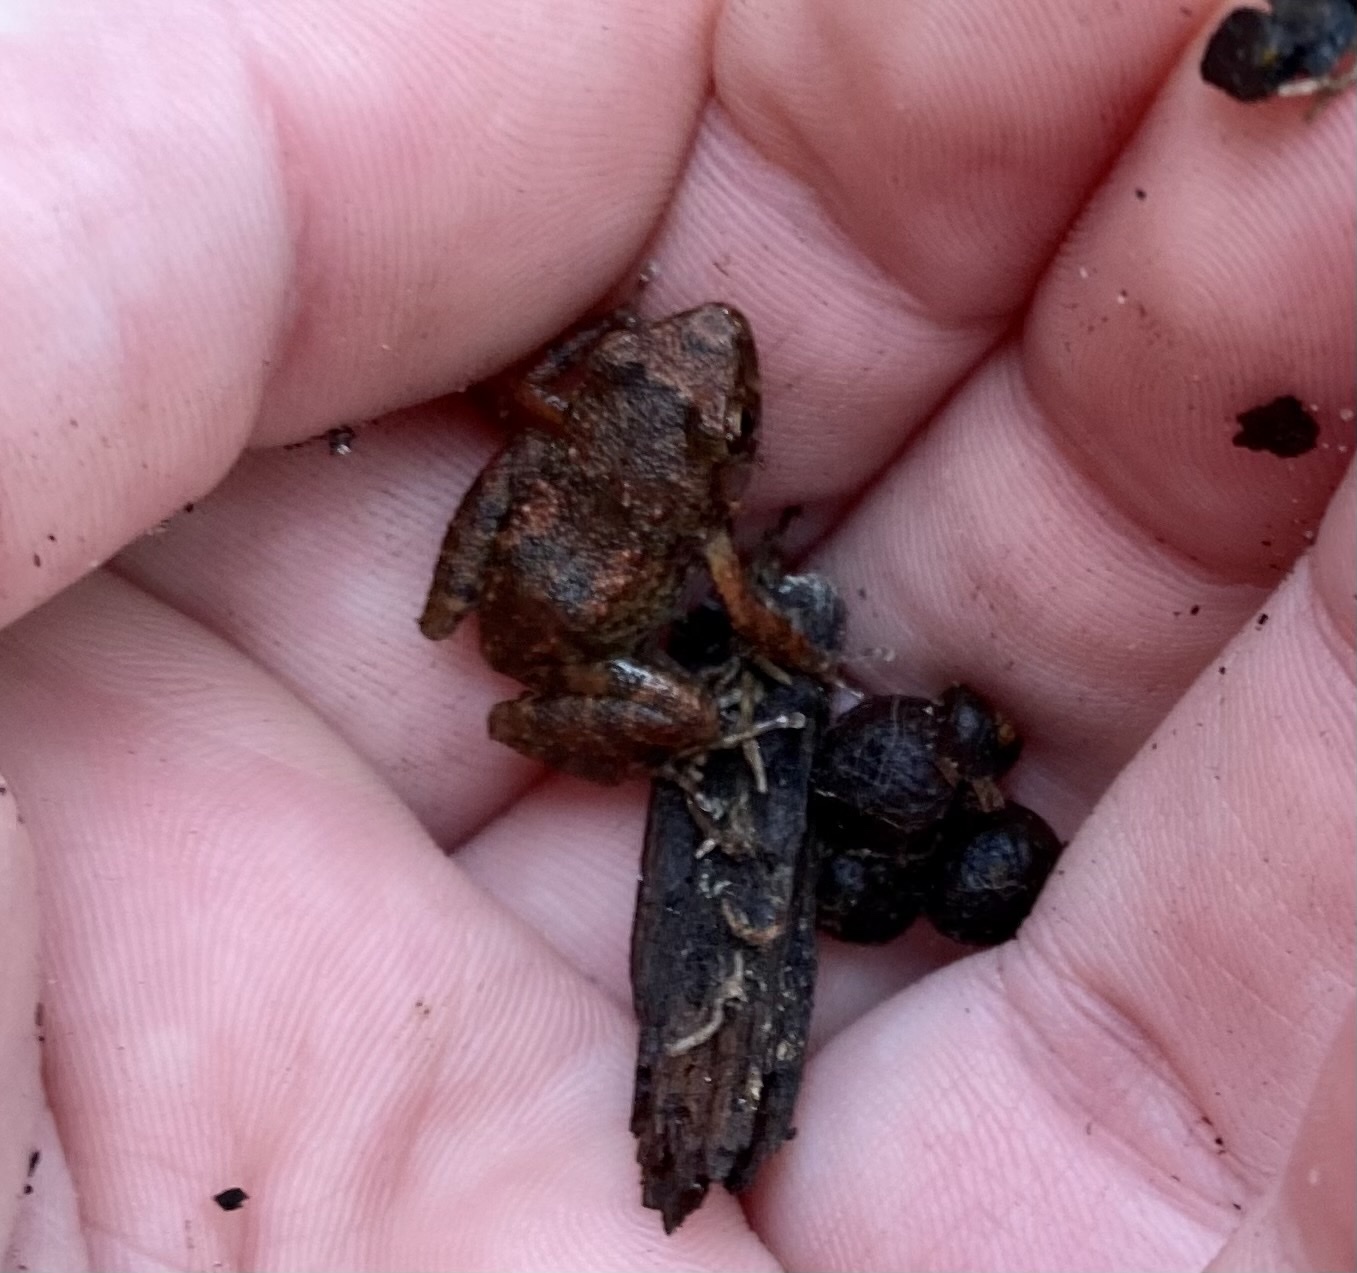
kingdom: Animalia
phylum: Chordata
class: Amphibia
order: Anura
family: Eleutherodactylidae
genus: Eleutherodactylus
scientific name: Eleutherodactylus planirostris
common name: Greenhouse frog
